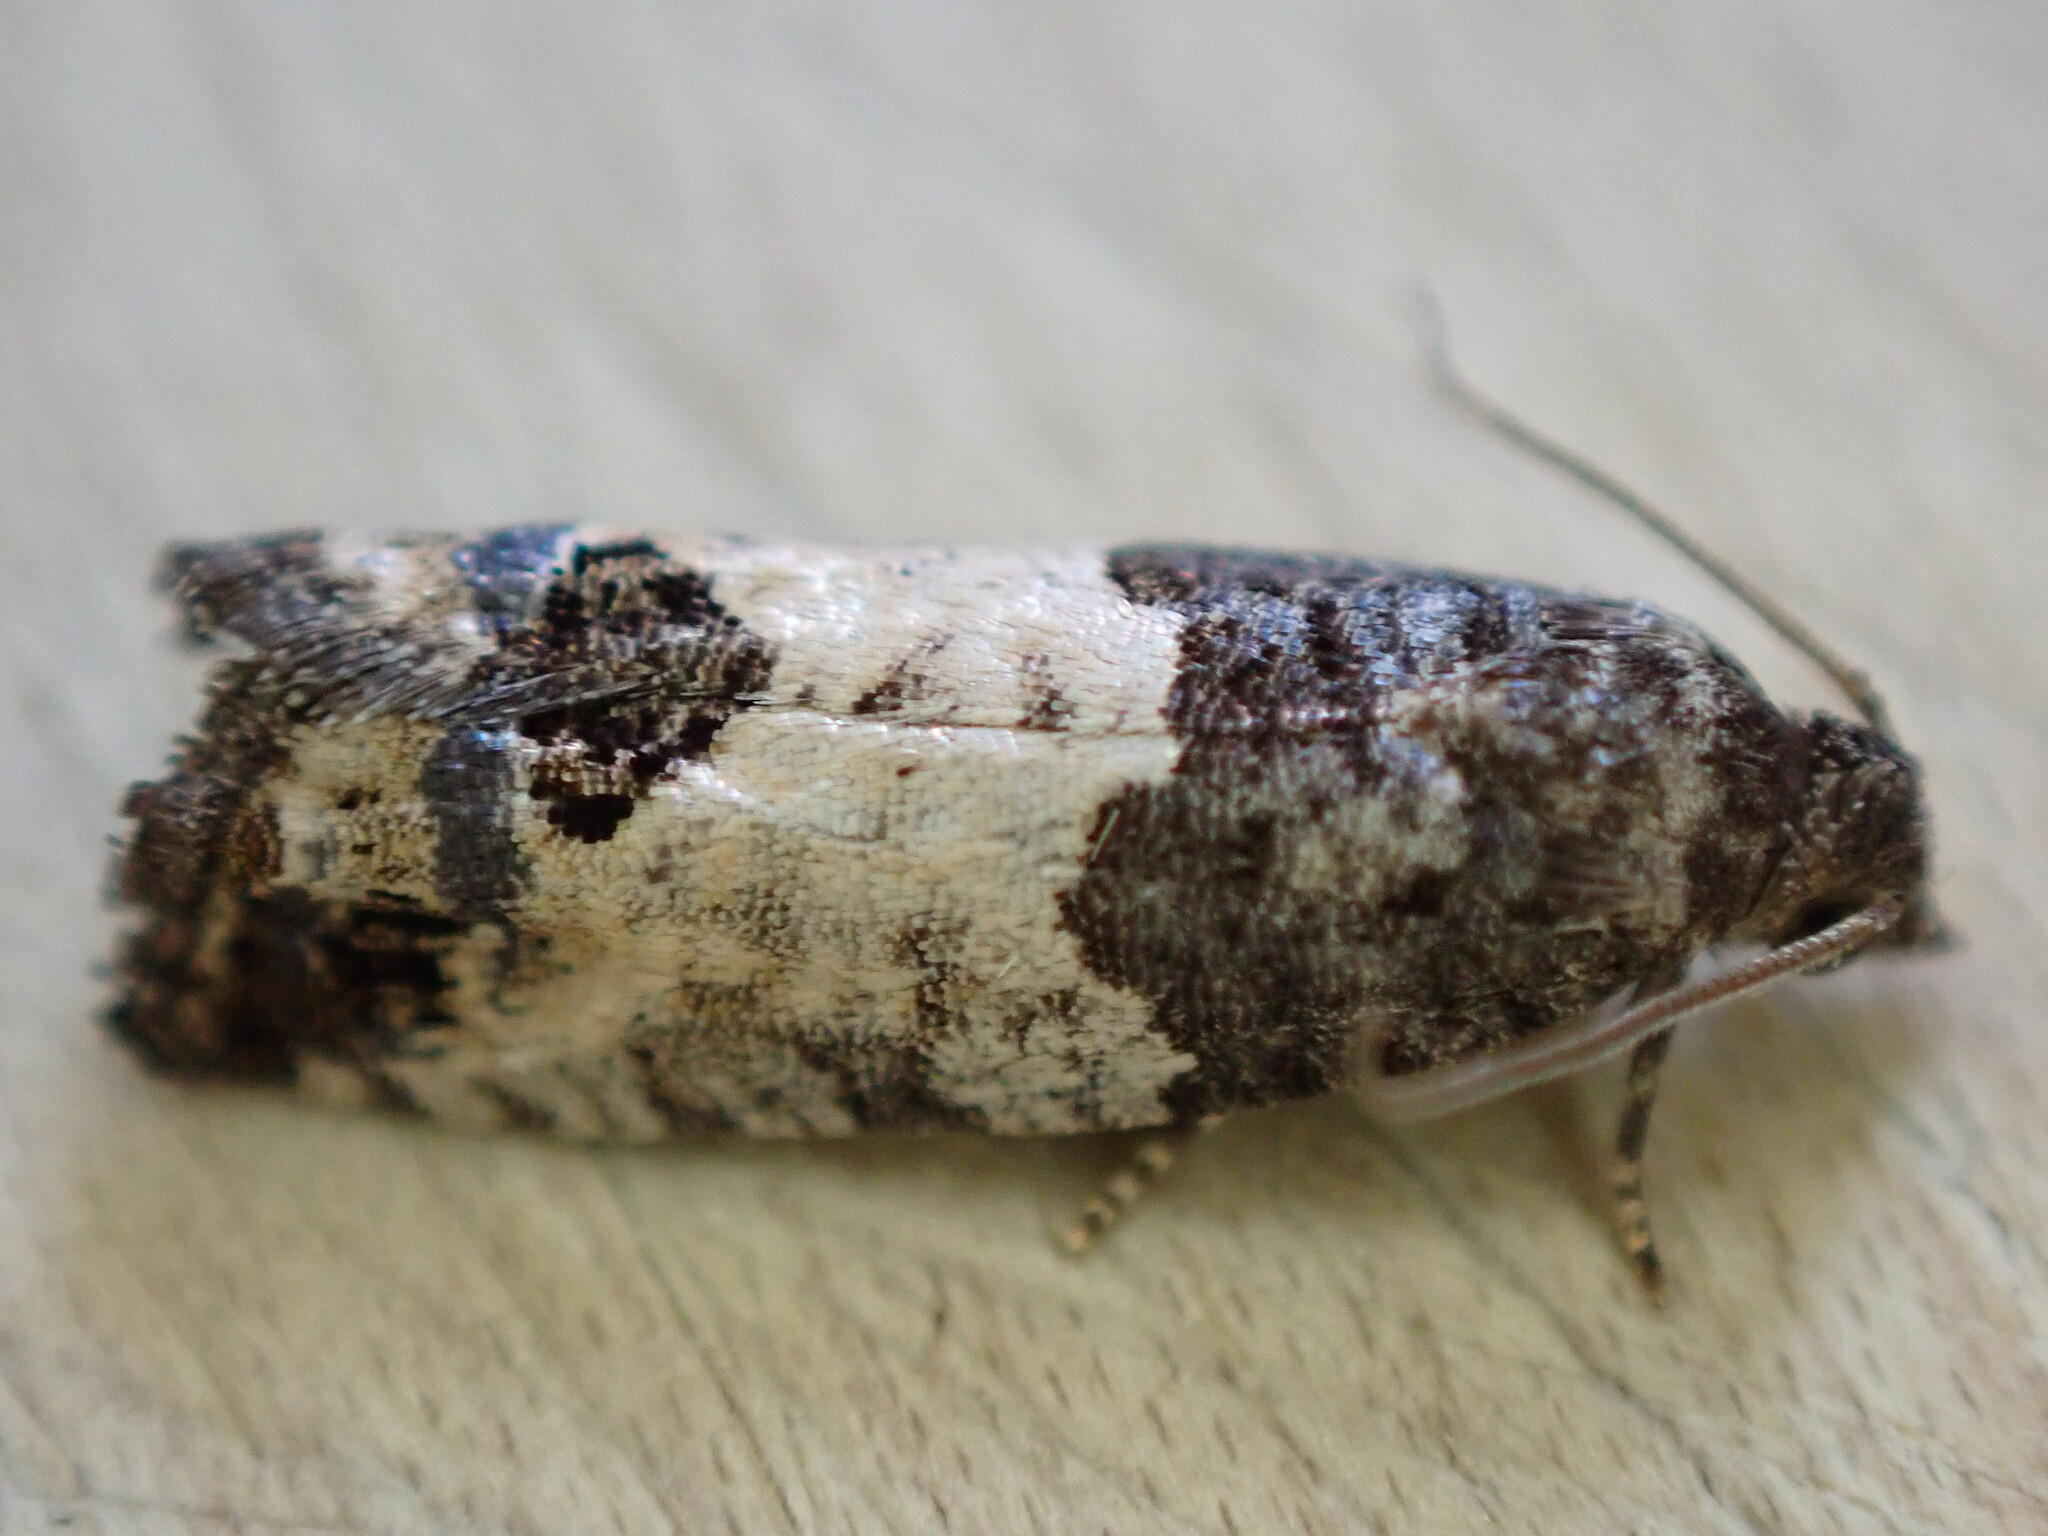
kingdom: Animalia
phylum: Arthropoda
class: Insecta
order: Lepidoptera
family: Tortricidae
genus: Spilonota
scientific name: Spilonota ocellana
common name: Bud moth
